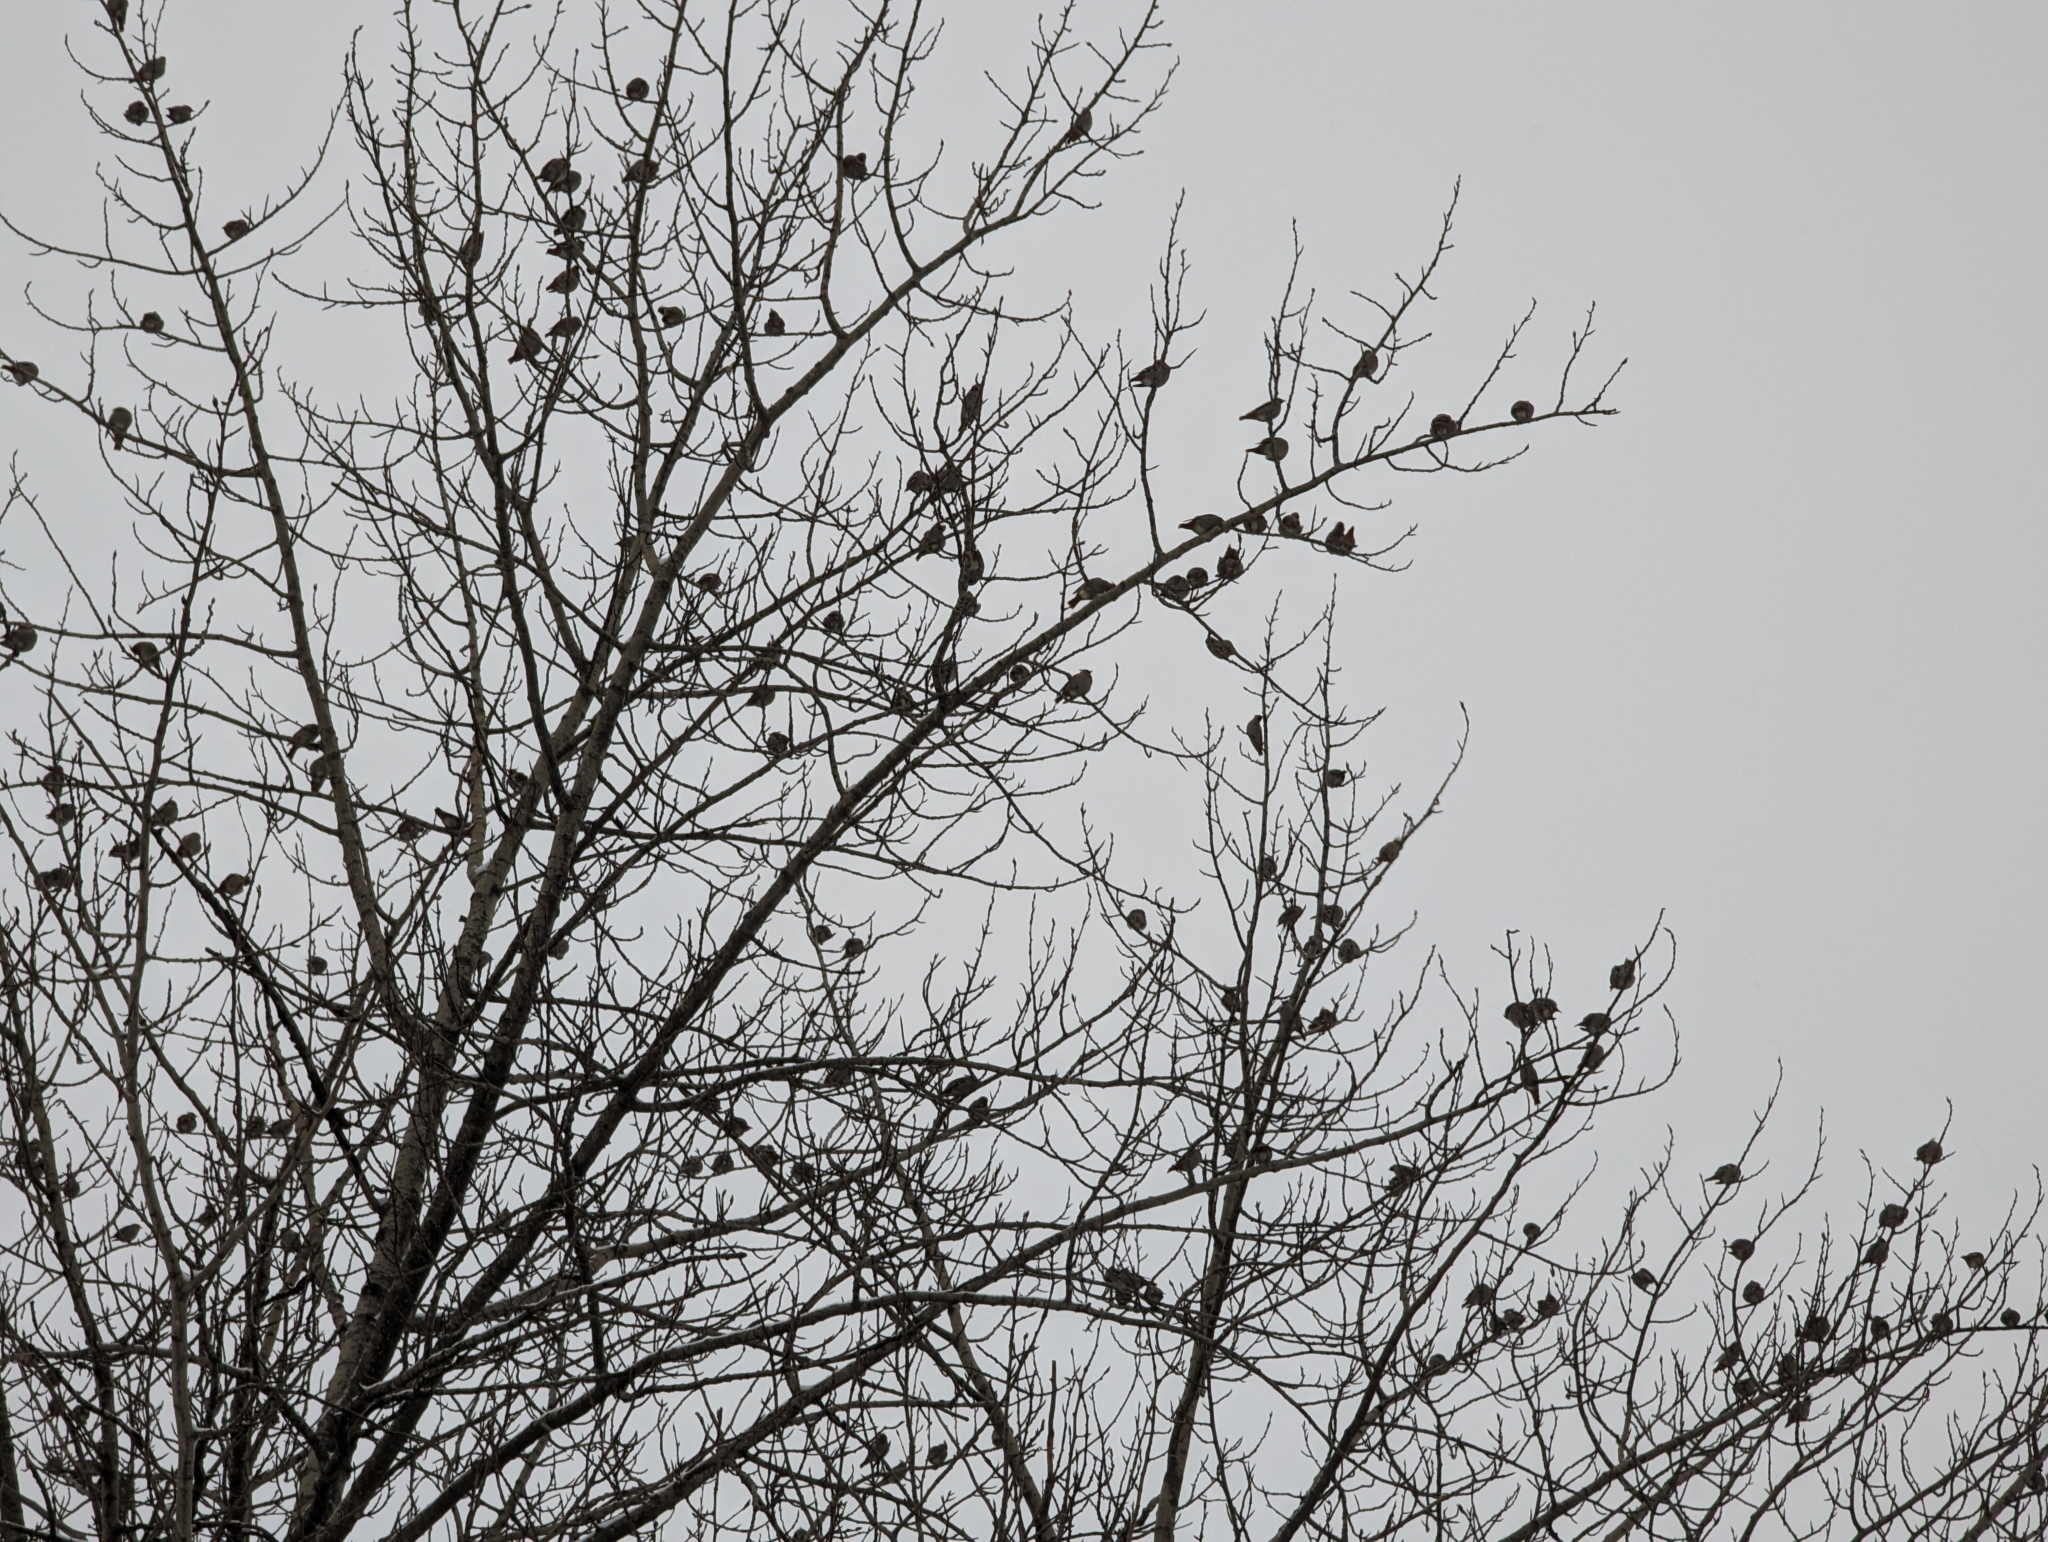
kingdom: Animalia
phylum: Chordata
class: Aves
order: Passeriformes
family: Bombycillidae
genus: Bombycilla
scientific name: Bombycilla garrulus
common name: Bohemian waxwing
